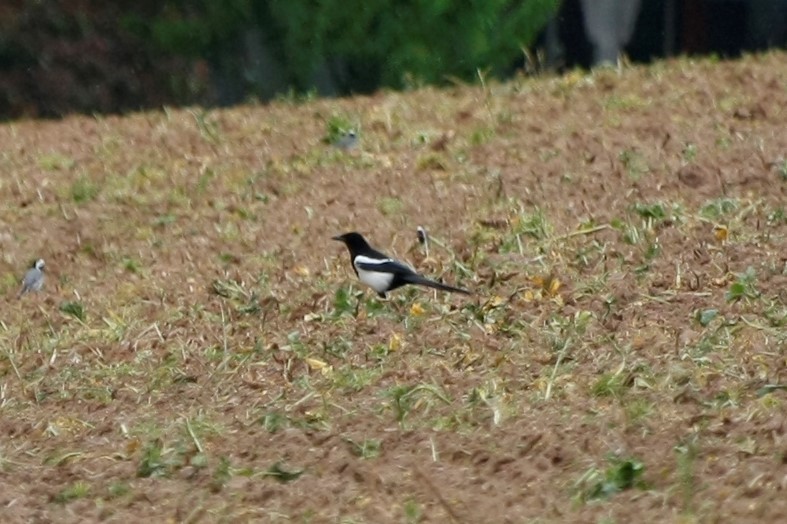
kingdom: Animalia
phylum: Chordata
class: Aves
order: Passeriformes
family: Corvidae
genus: Pica
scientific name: Pica pica
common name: Eurasian magpie
